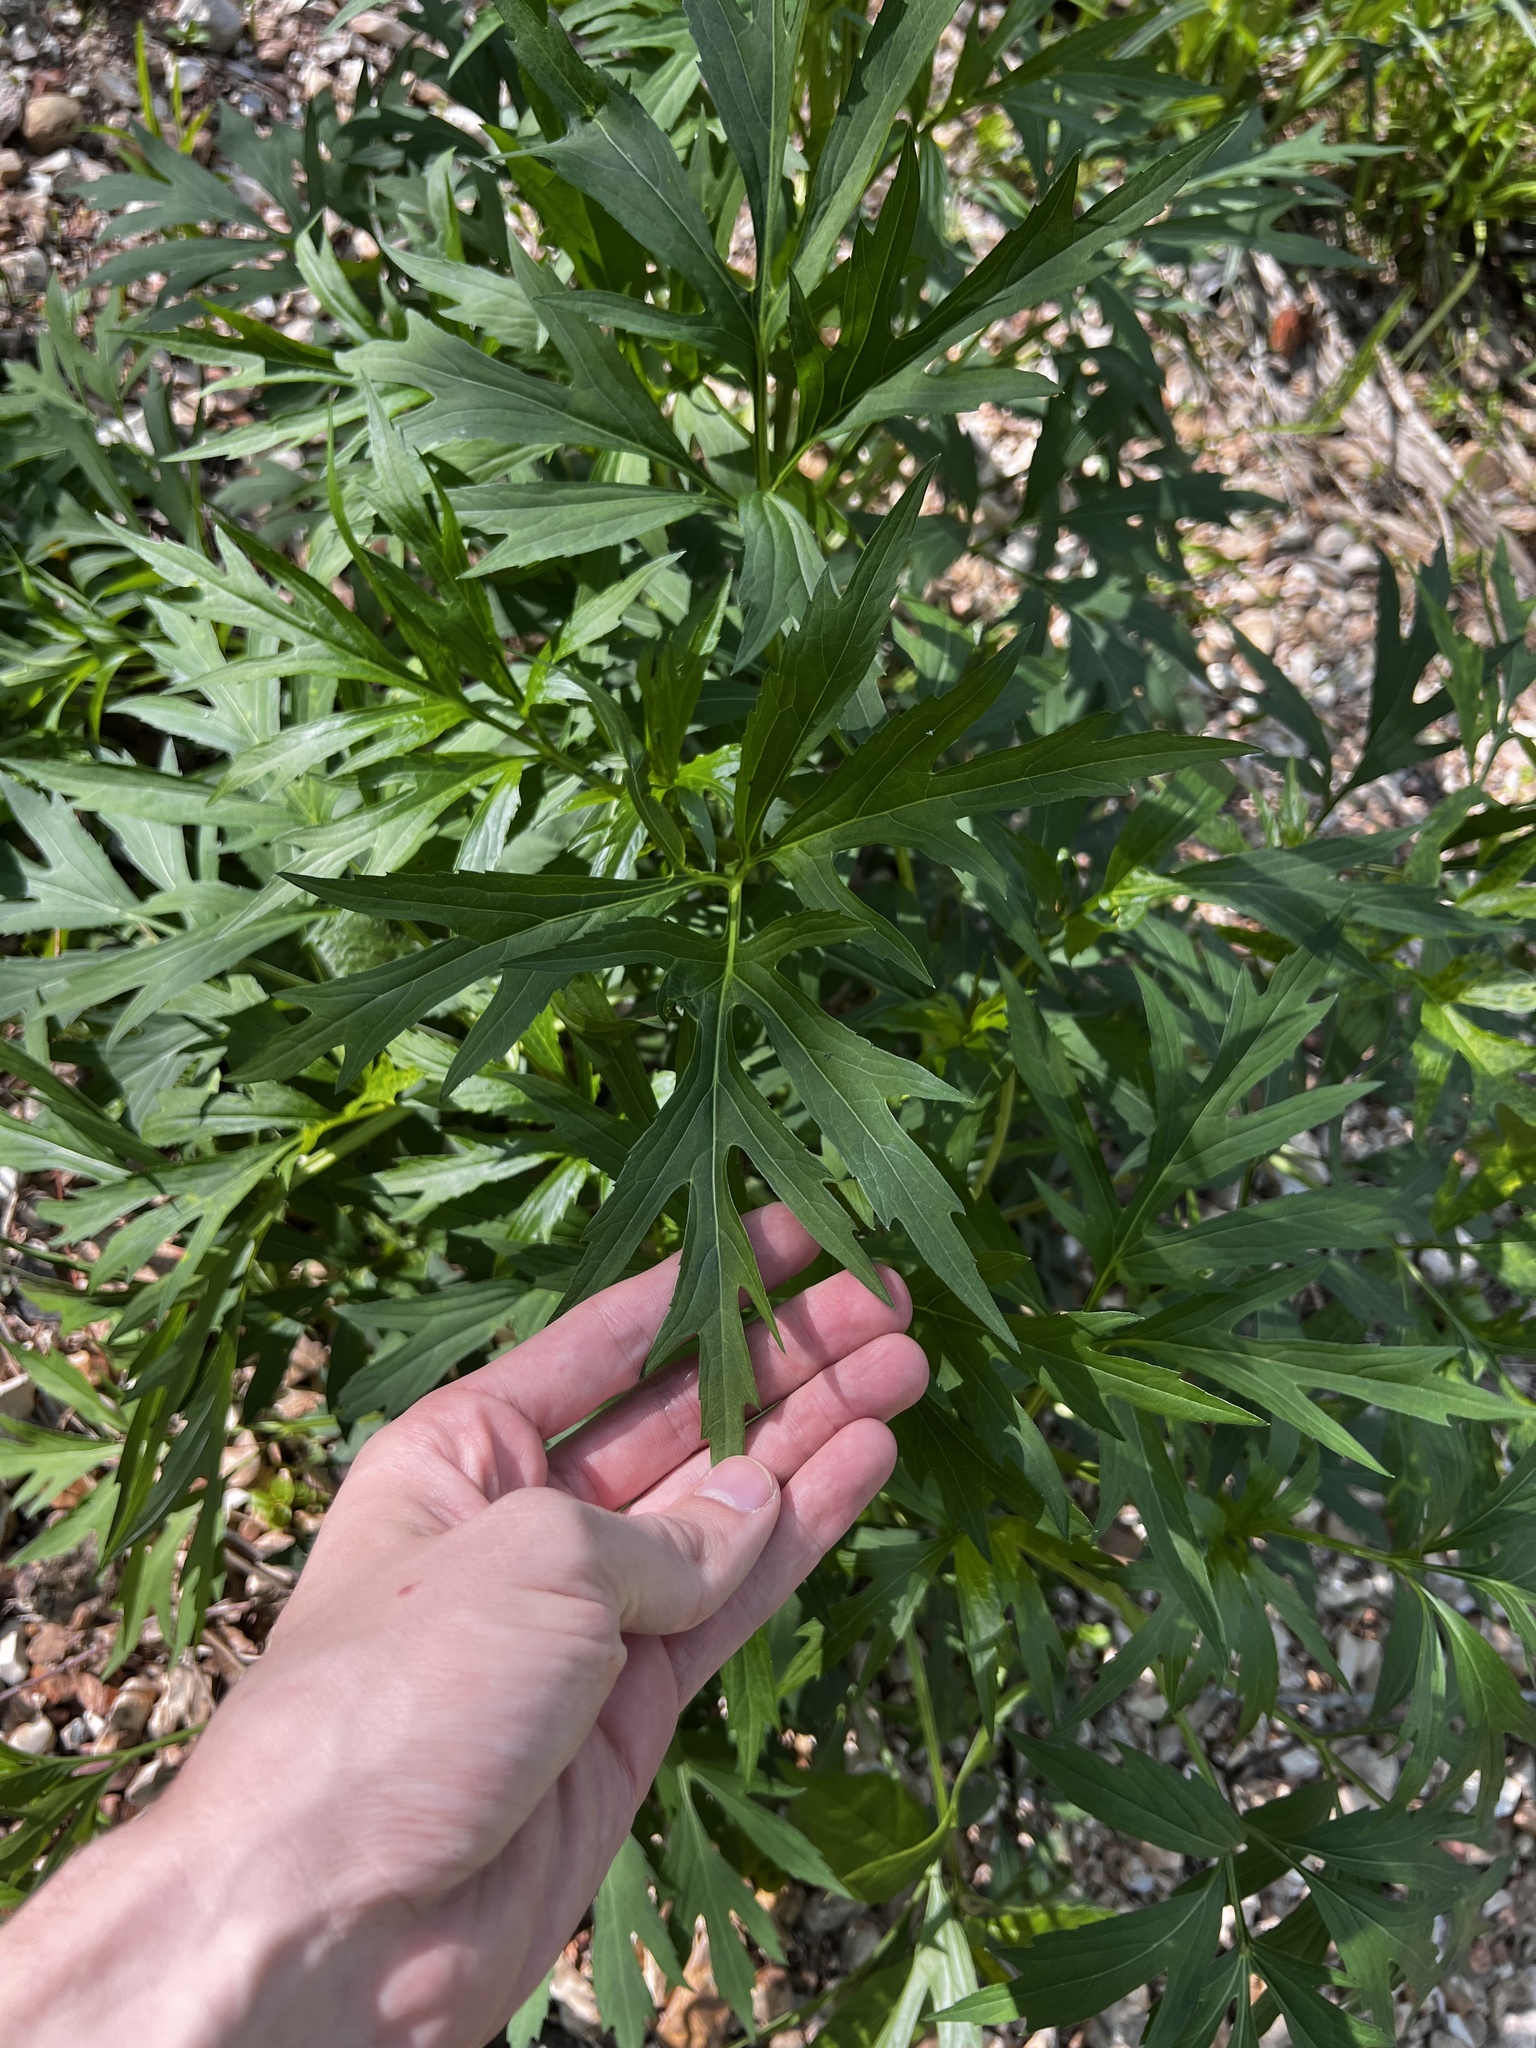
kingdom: Plantae
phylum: Tracheophyta
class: Magnoliopsida
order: Asterales
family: Asteraceae
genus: Rudbeckia
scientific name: Rudbeckia laciniata
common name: Coneflower
